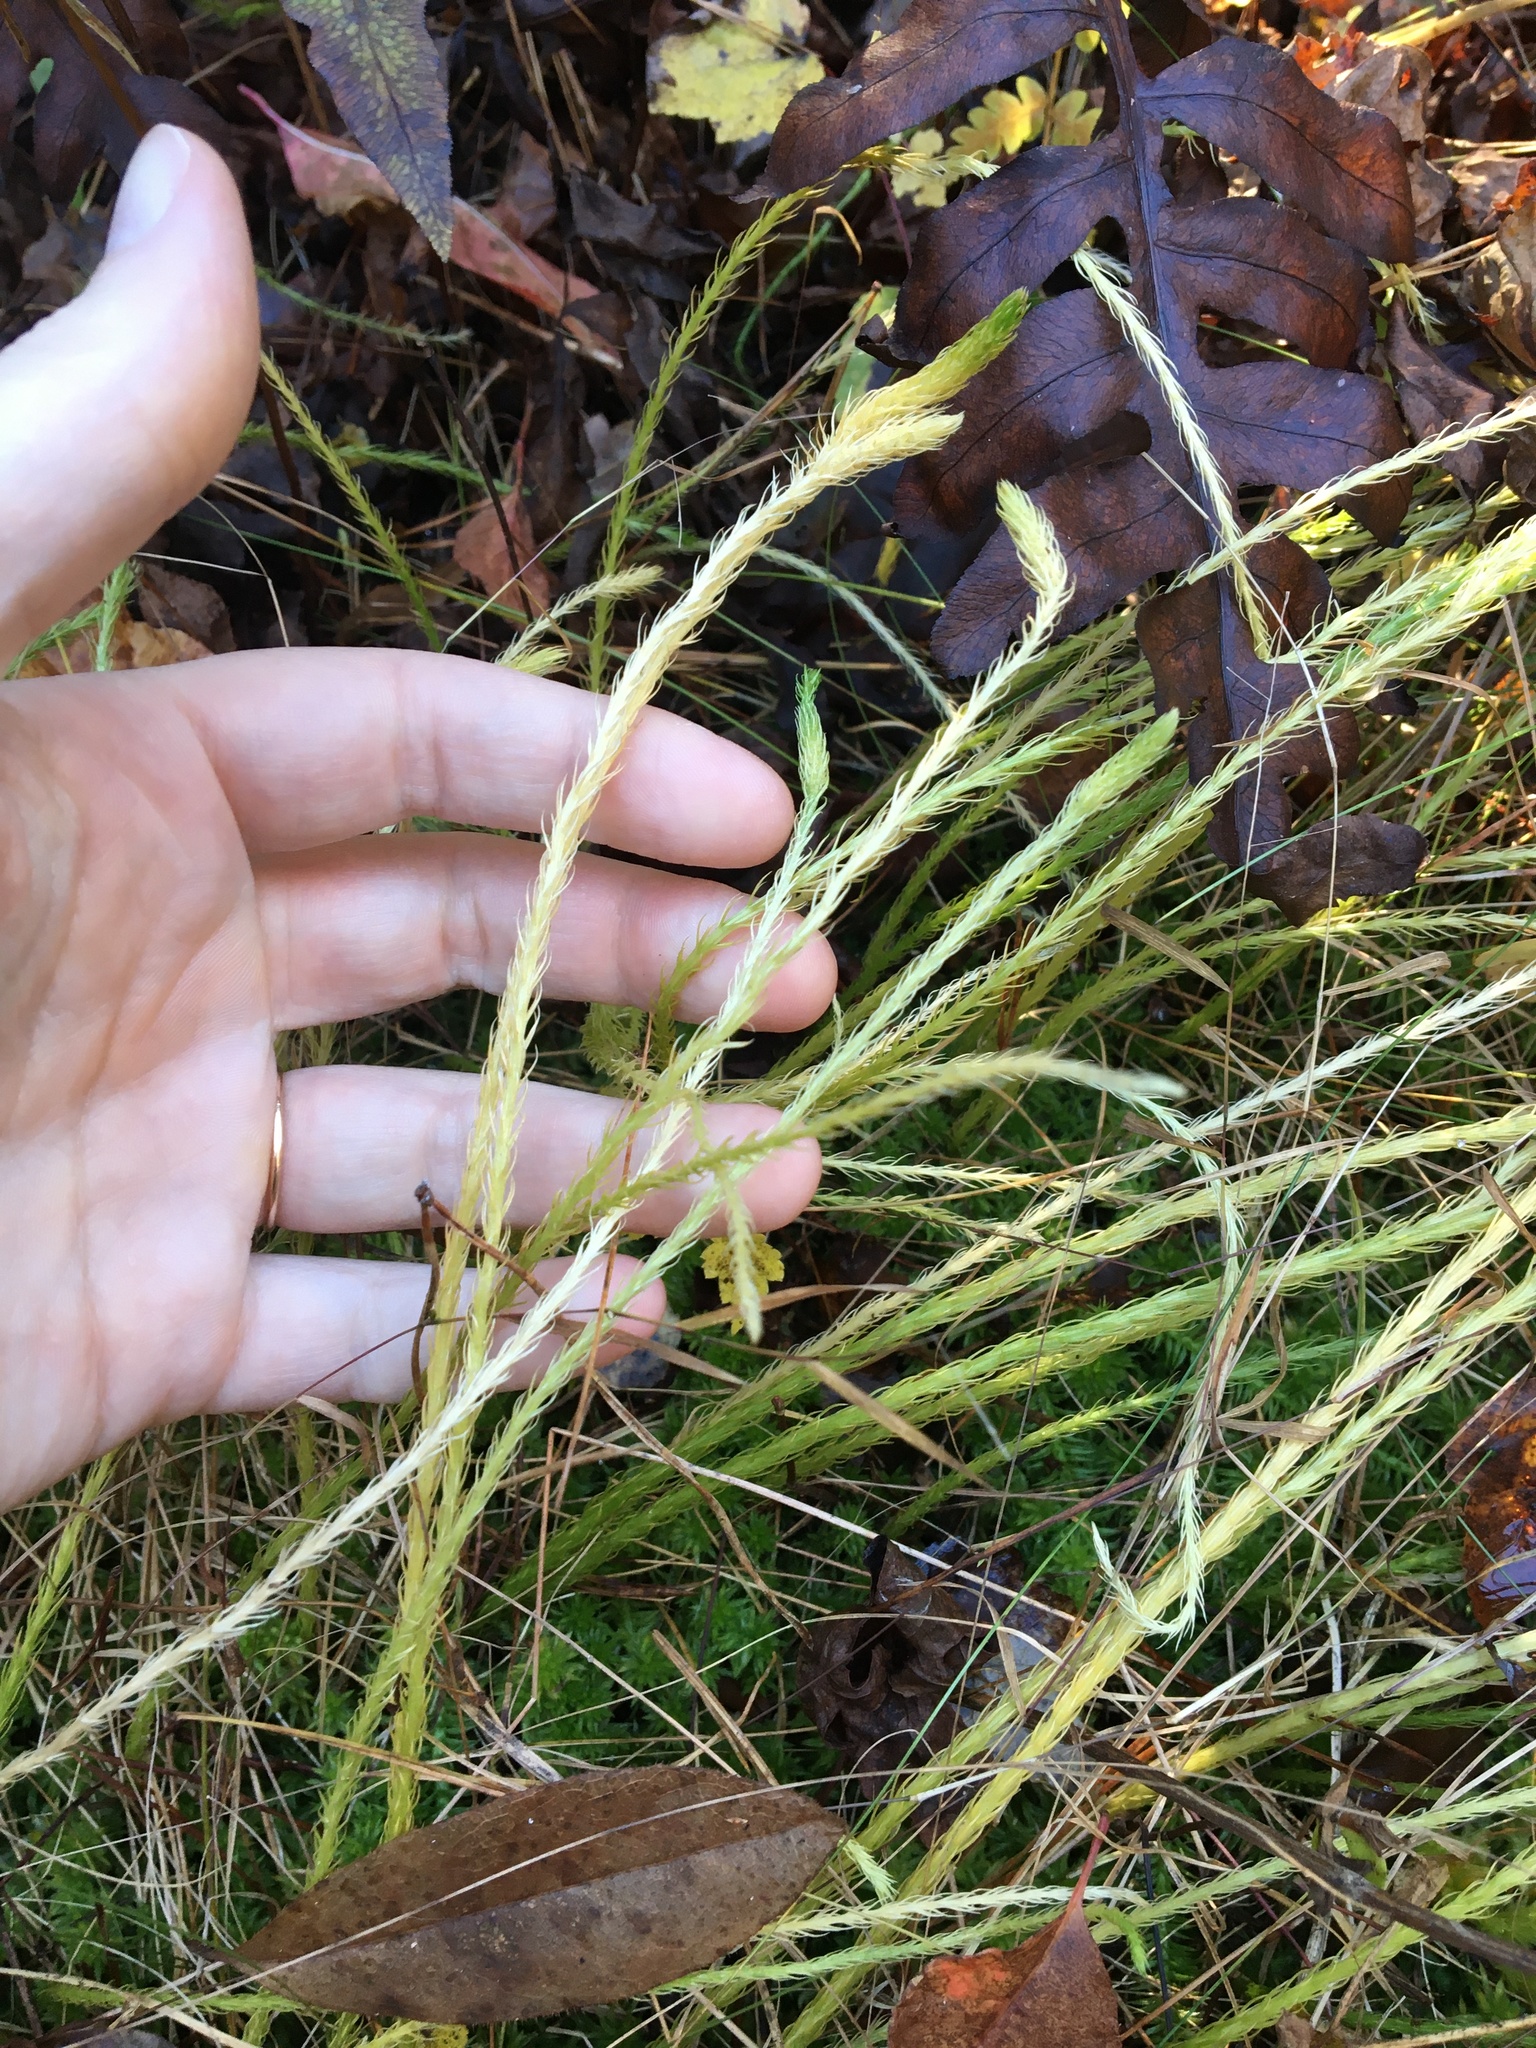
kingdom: Plantae
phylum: Tracheophyta
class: Lycopodiopsida
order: Lycopodiales
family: Lycopodiaceae
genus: Lycopodiella
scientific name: Lycopodiella appressa
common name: Appressed bog clubmoss
